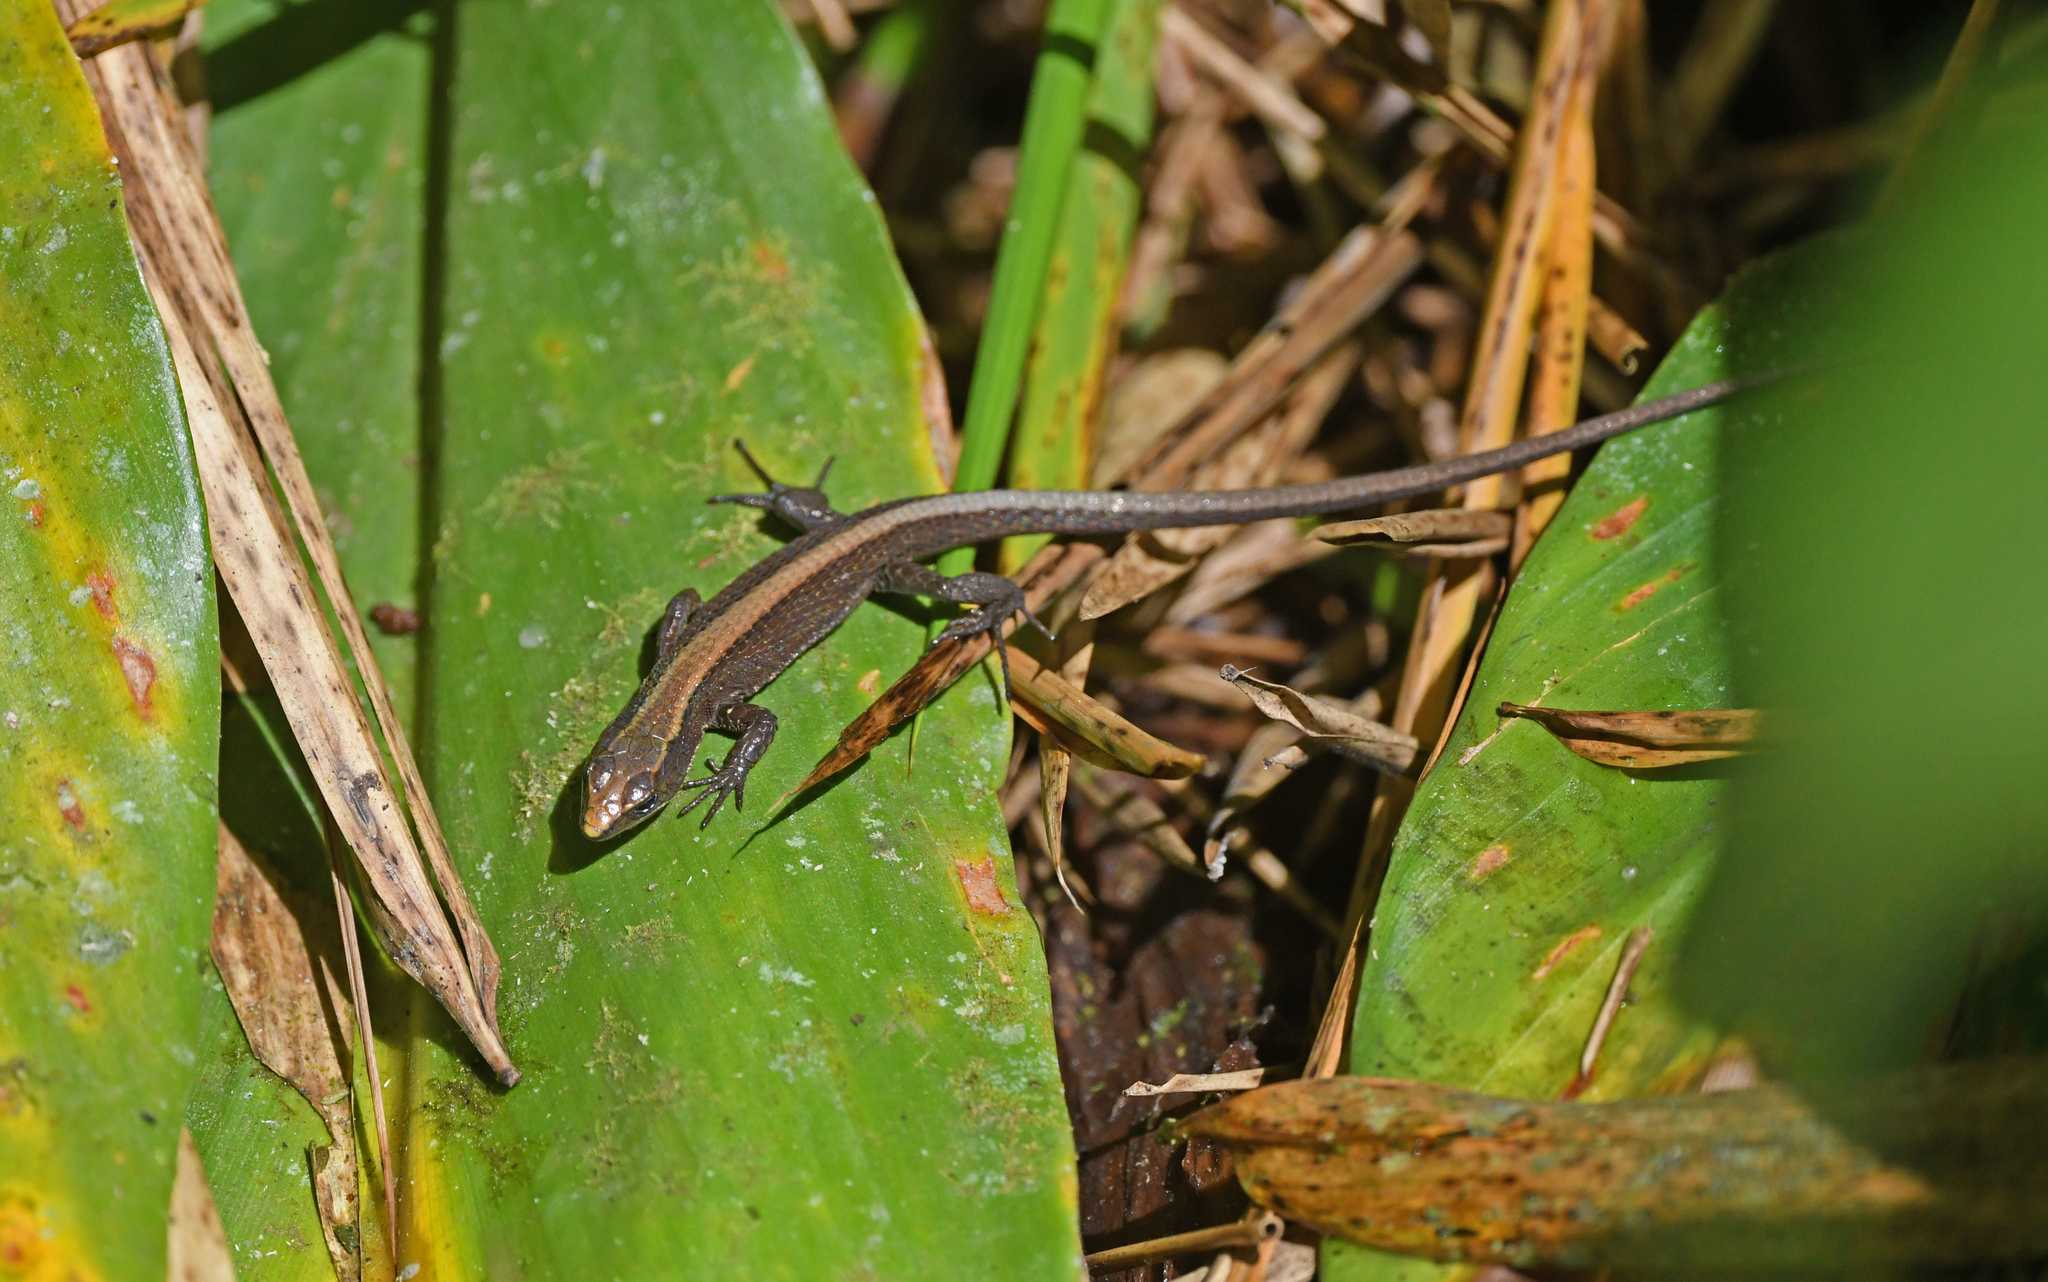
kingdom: Animalia
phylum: Chordata
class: Squamata
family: Gymnophthalmidae
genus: Pholidobolus
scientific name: Pholidobolus vertebralis
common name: Brown prionodactylus
